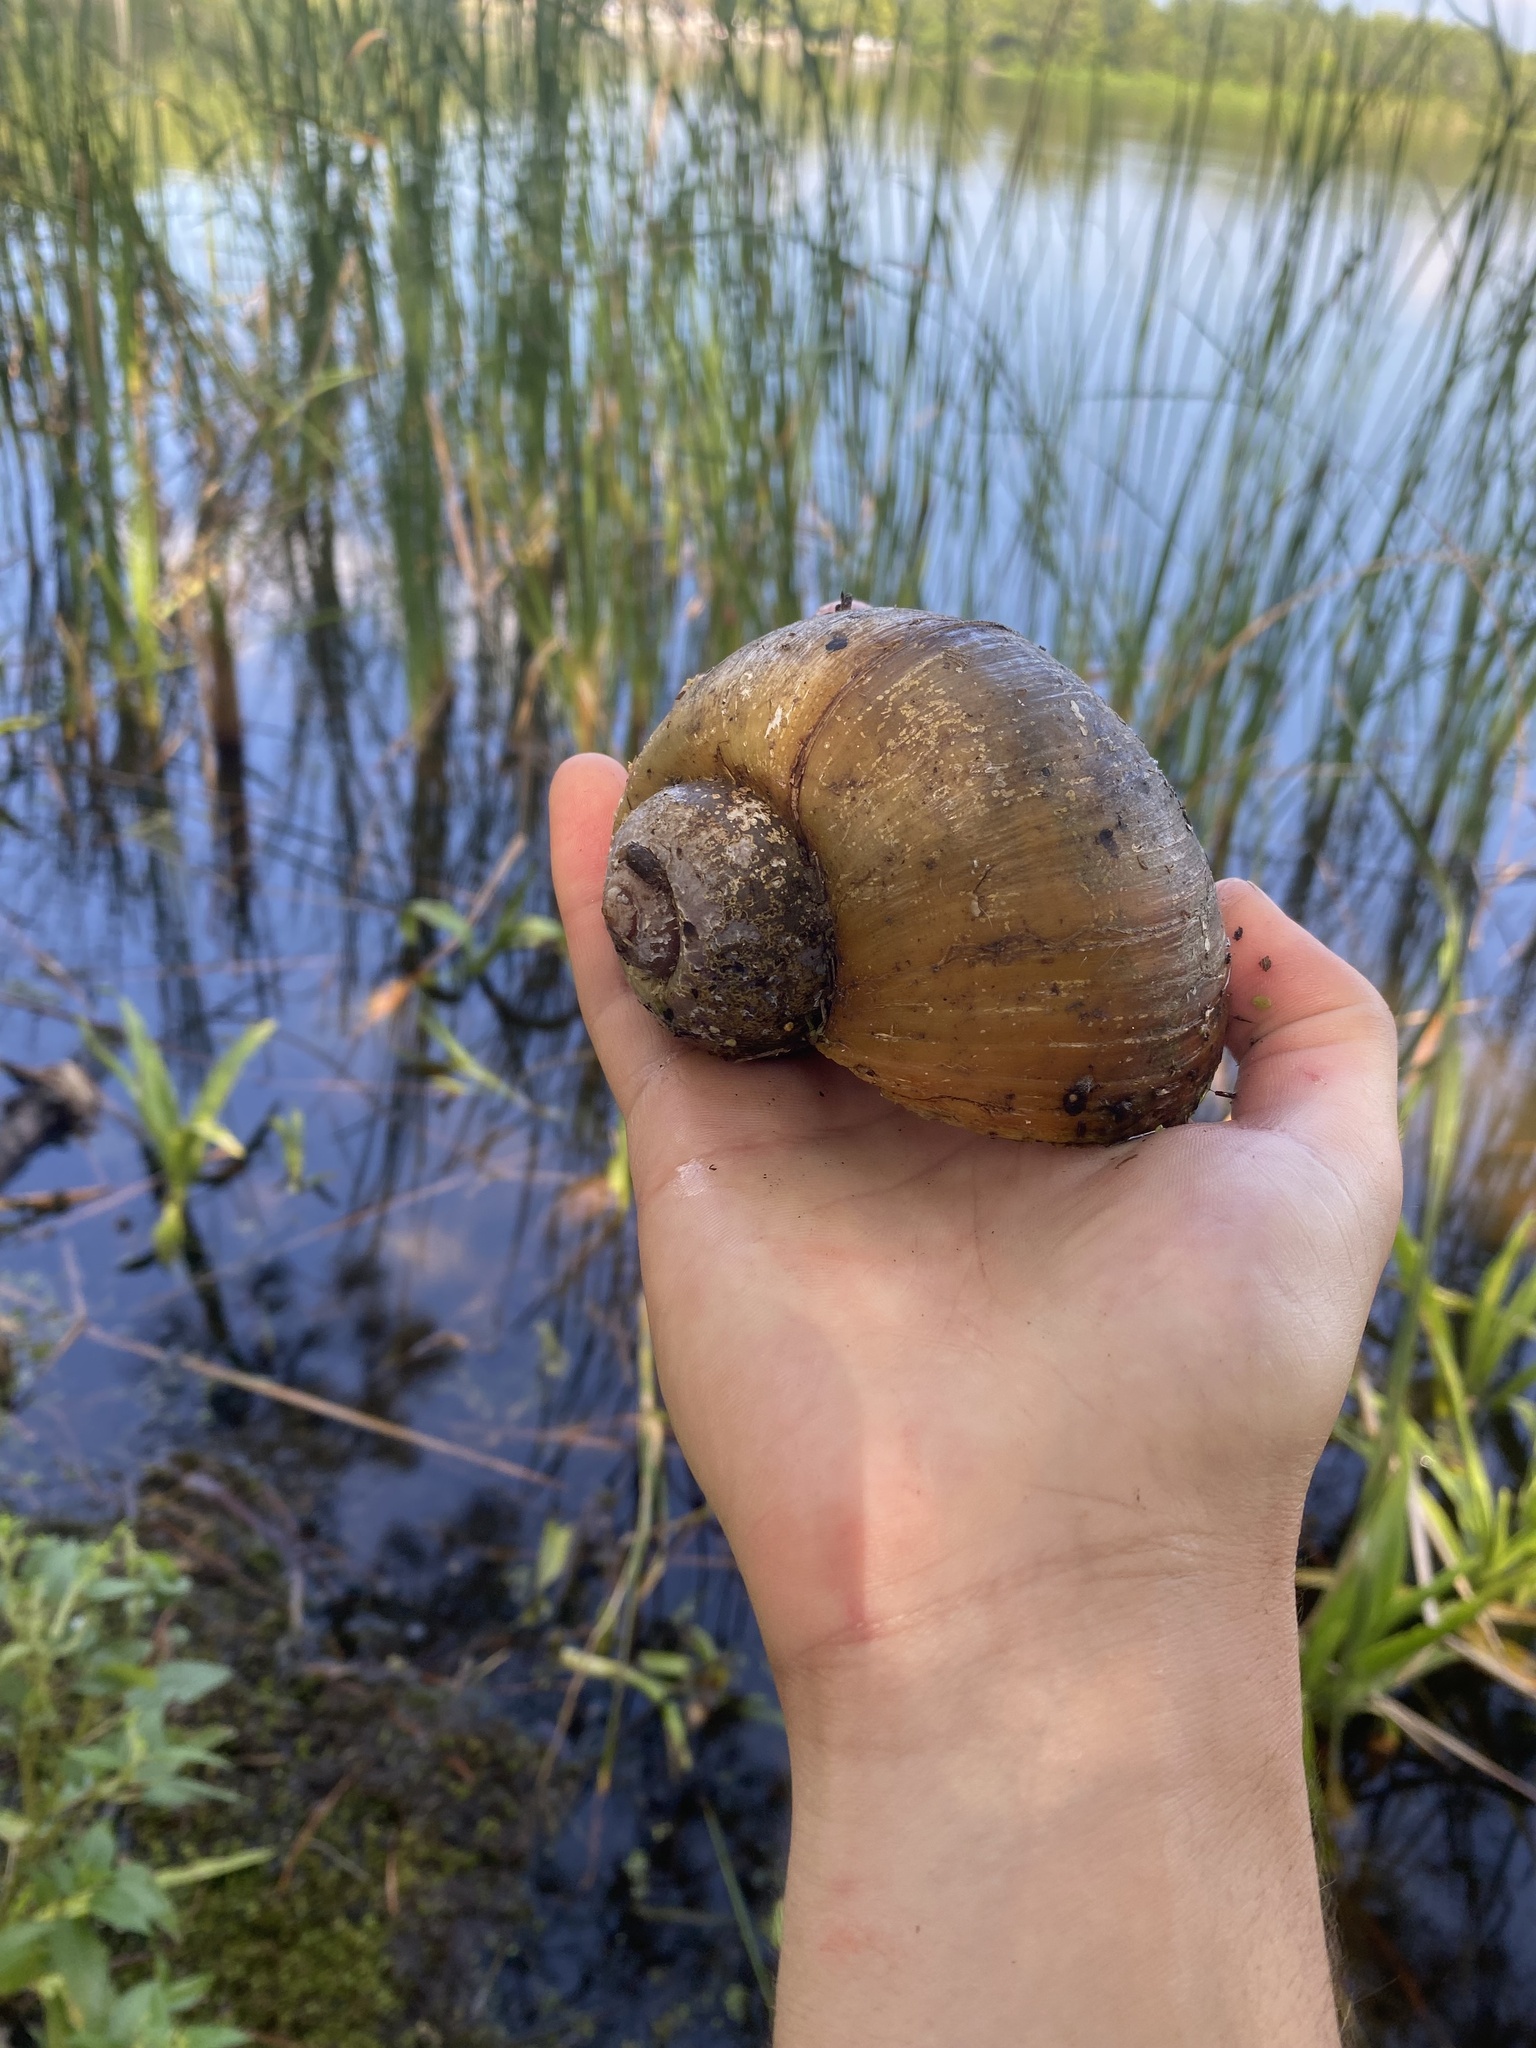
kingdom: Animalia
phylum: Mollusca
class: Gastropoda
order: Architaenioglossa
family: Ampullariidae
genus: Pomacea
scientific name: Pomacea maculata
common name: Giant applesnail
